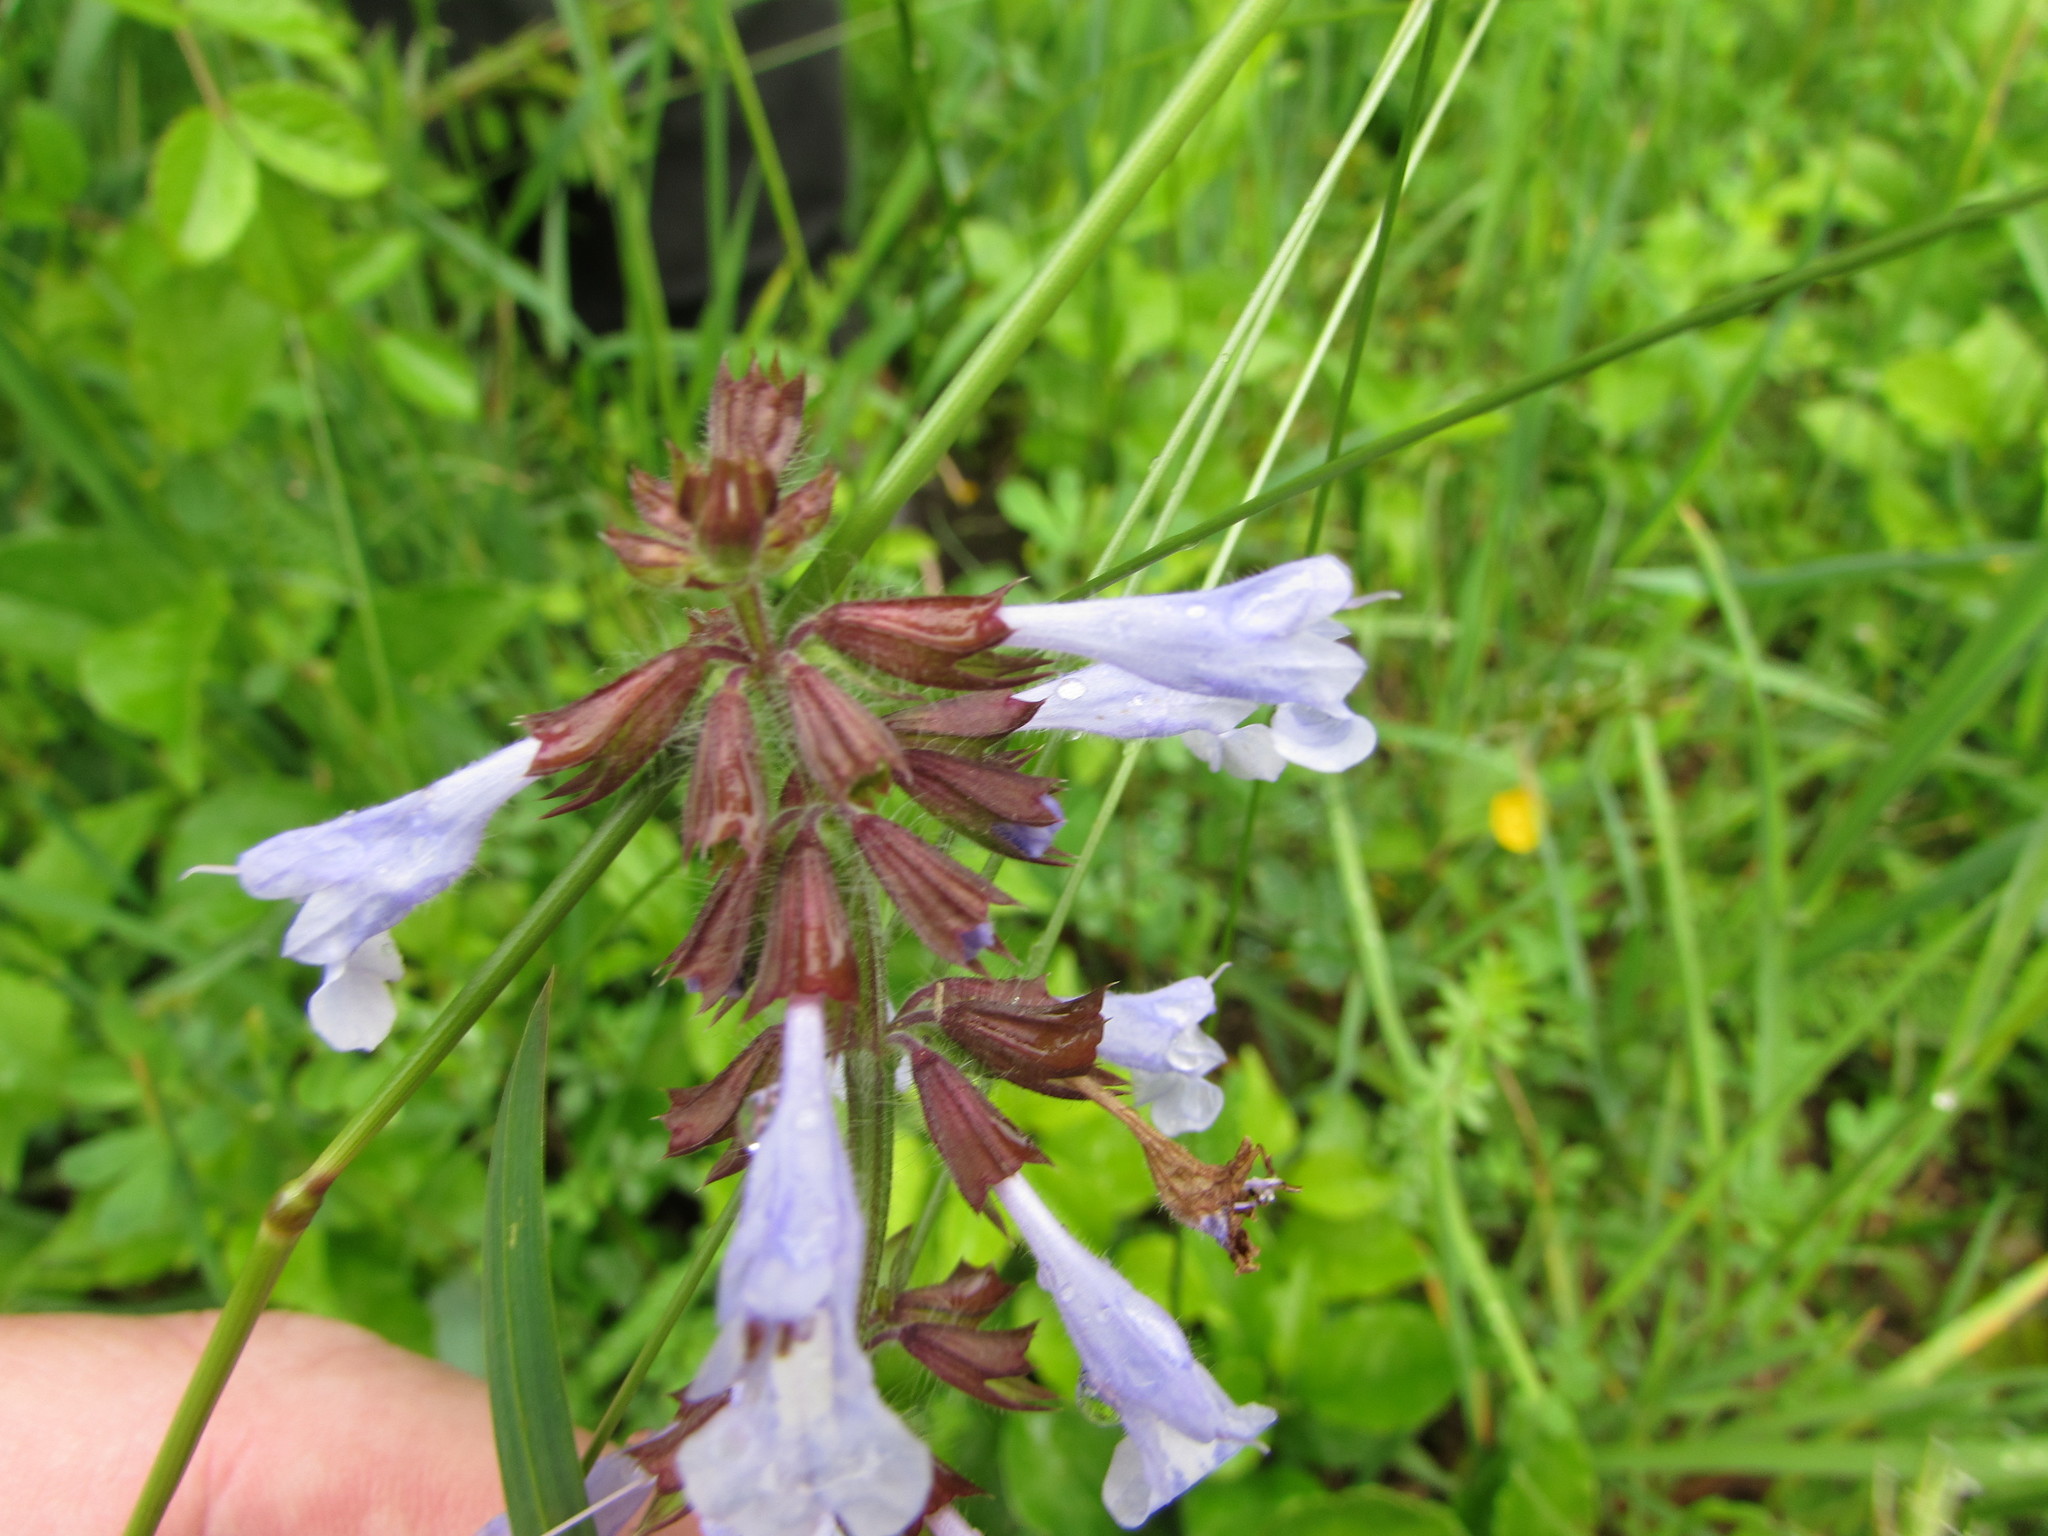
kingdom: Plantae
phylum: Tracheophyta
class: Magnoliopsida
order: Lamiales
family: Lamiaceae
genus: Salvia
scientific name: Salvia lyrata
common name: Cancerweed
